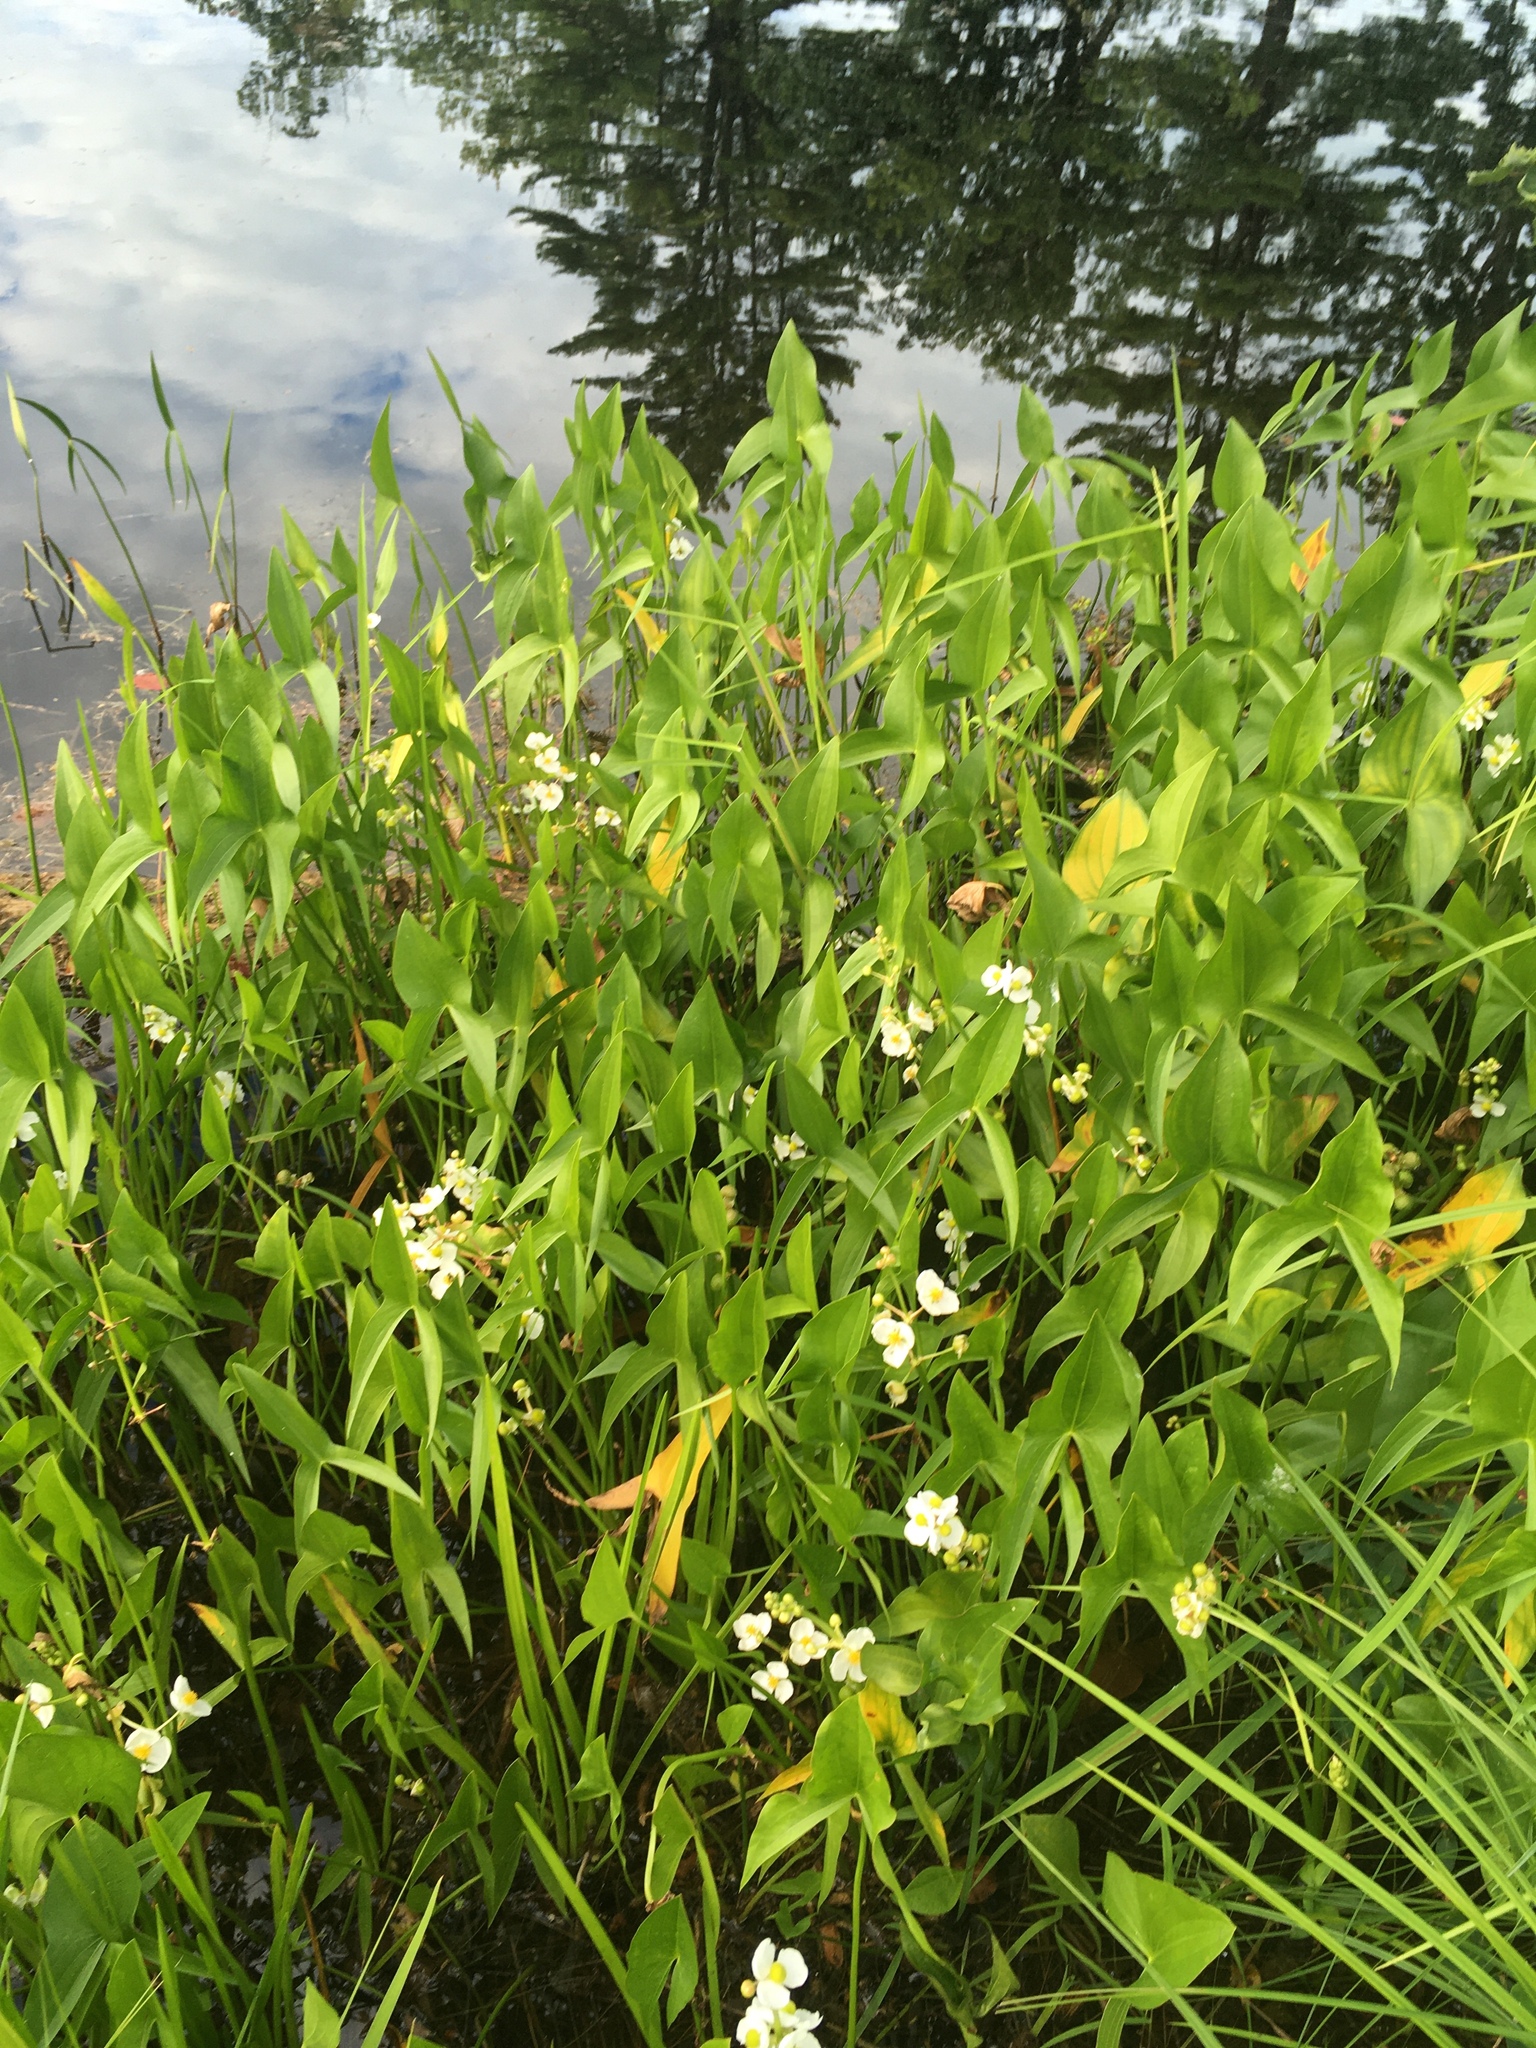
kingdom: Plantae
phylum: Tracheophyta
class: Liliopsida
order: Alismatales
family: Alismataceae
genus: Sagittaria
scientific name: Sagittaria latifolia
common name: Duck-potato
